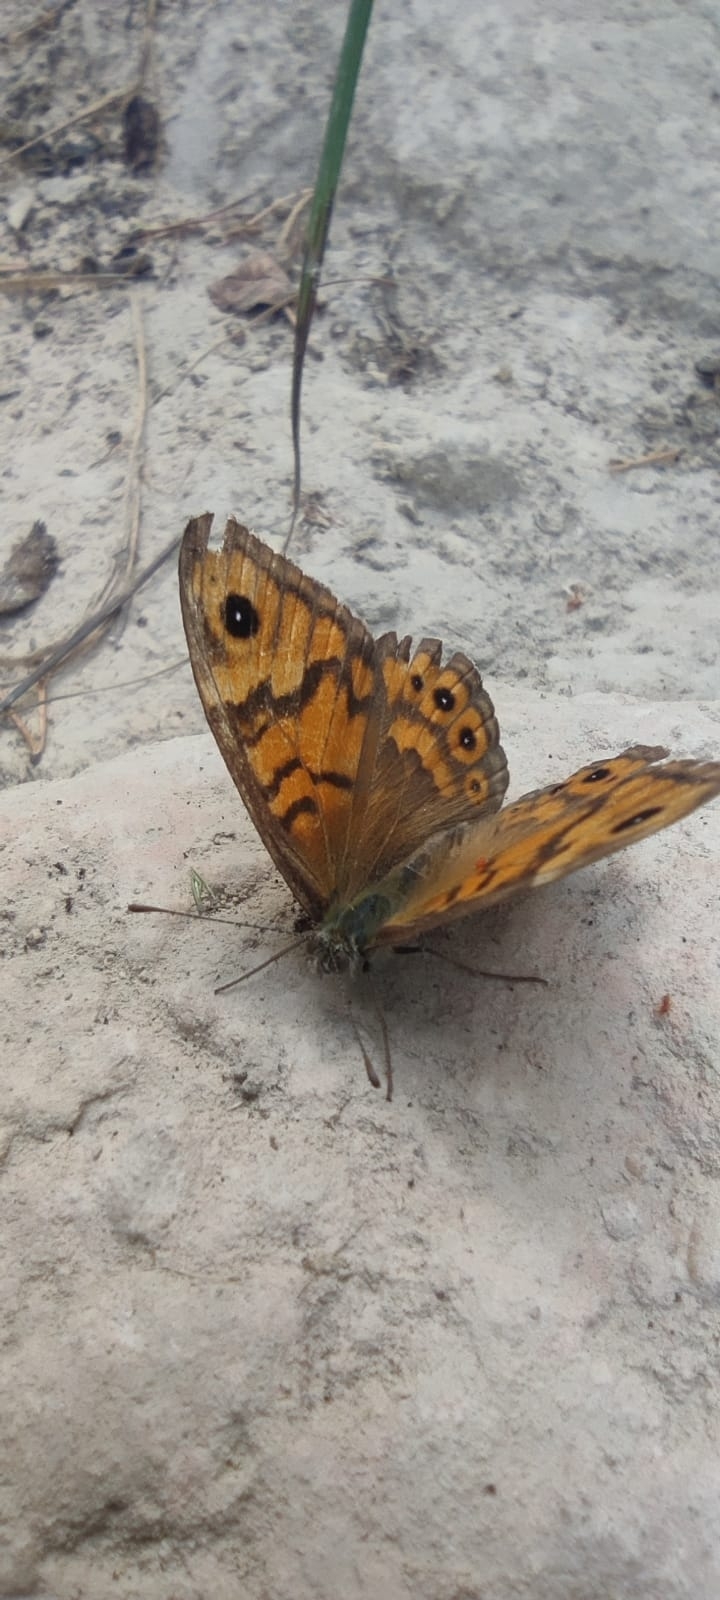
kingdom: Animalia
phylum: Arthropoda
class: Insecta
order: Lepidoptera
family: Nymphalidae
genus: Pararge
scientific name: Pararge Lasiommata megera
